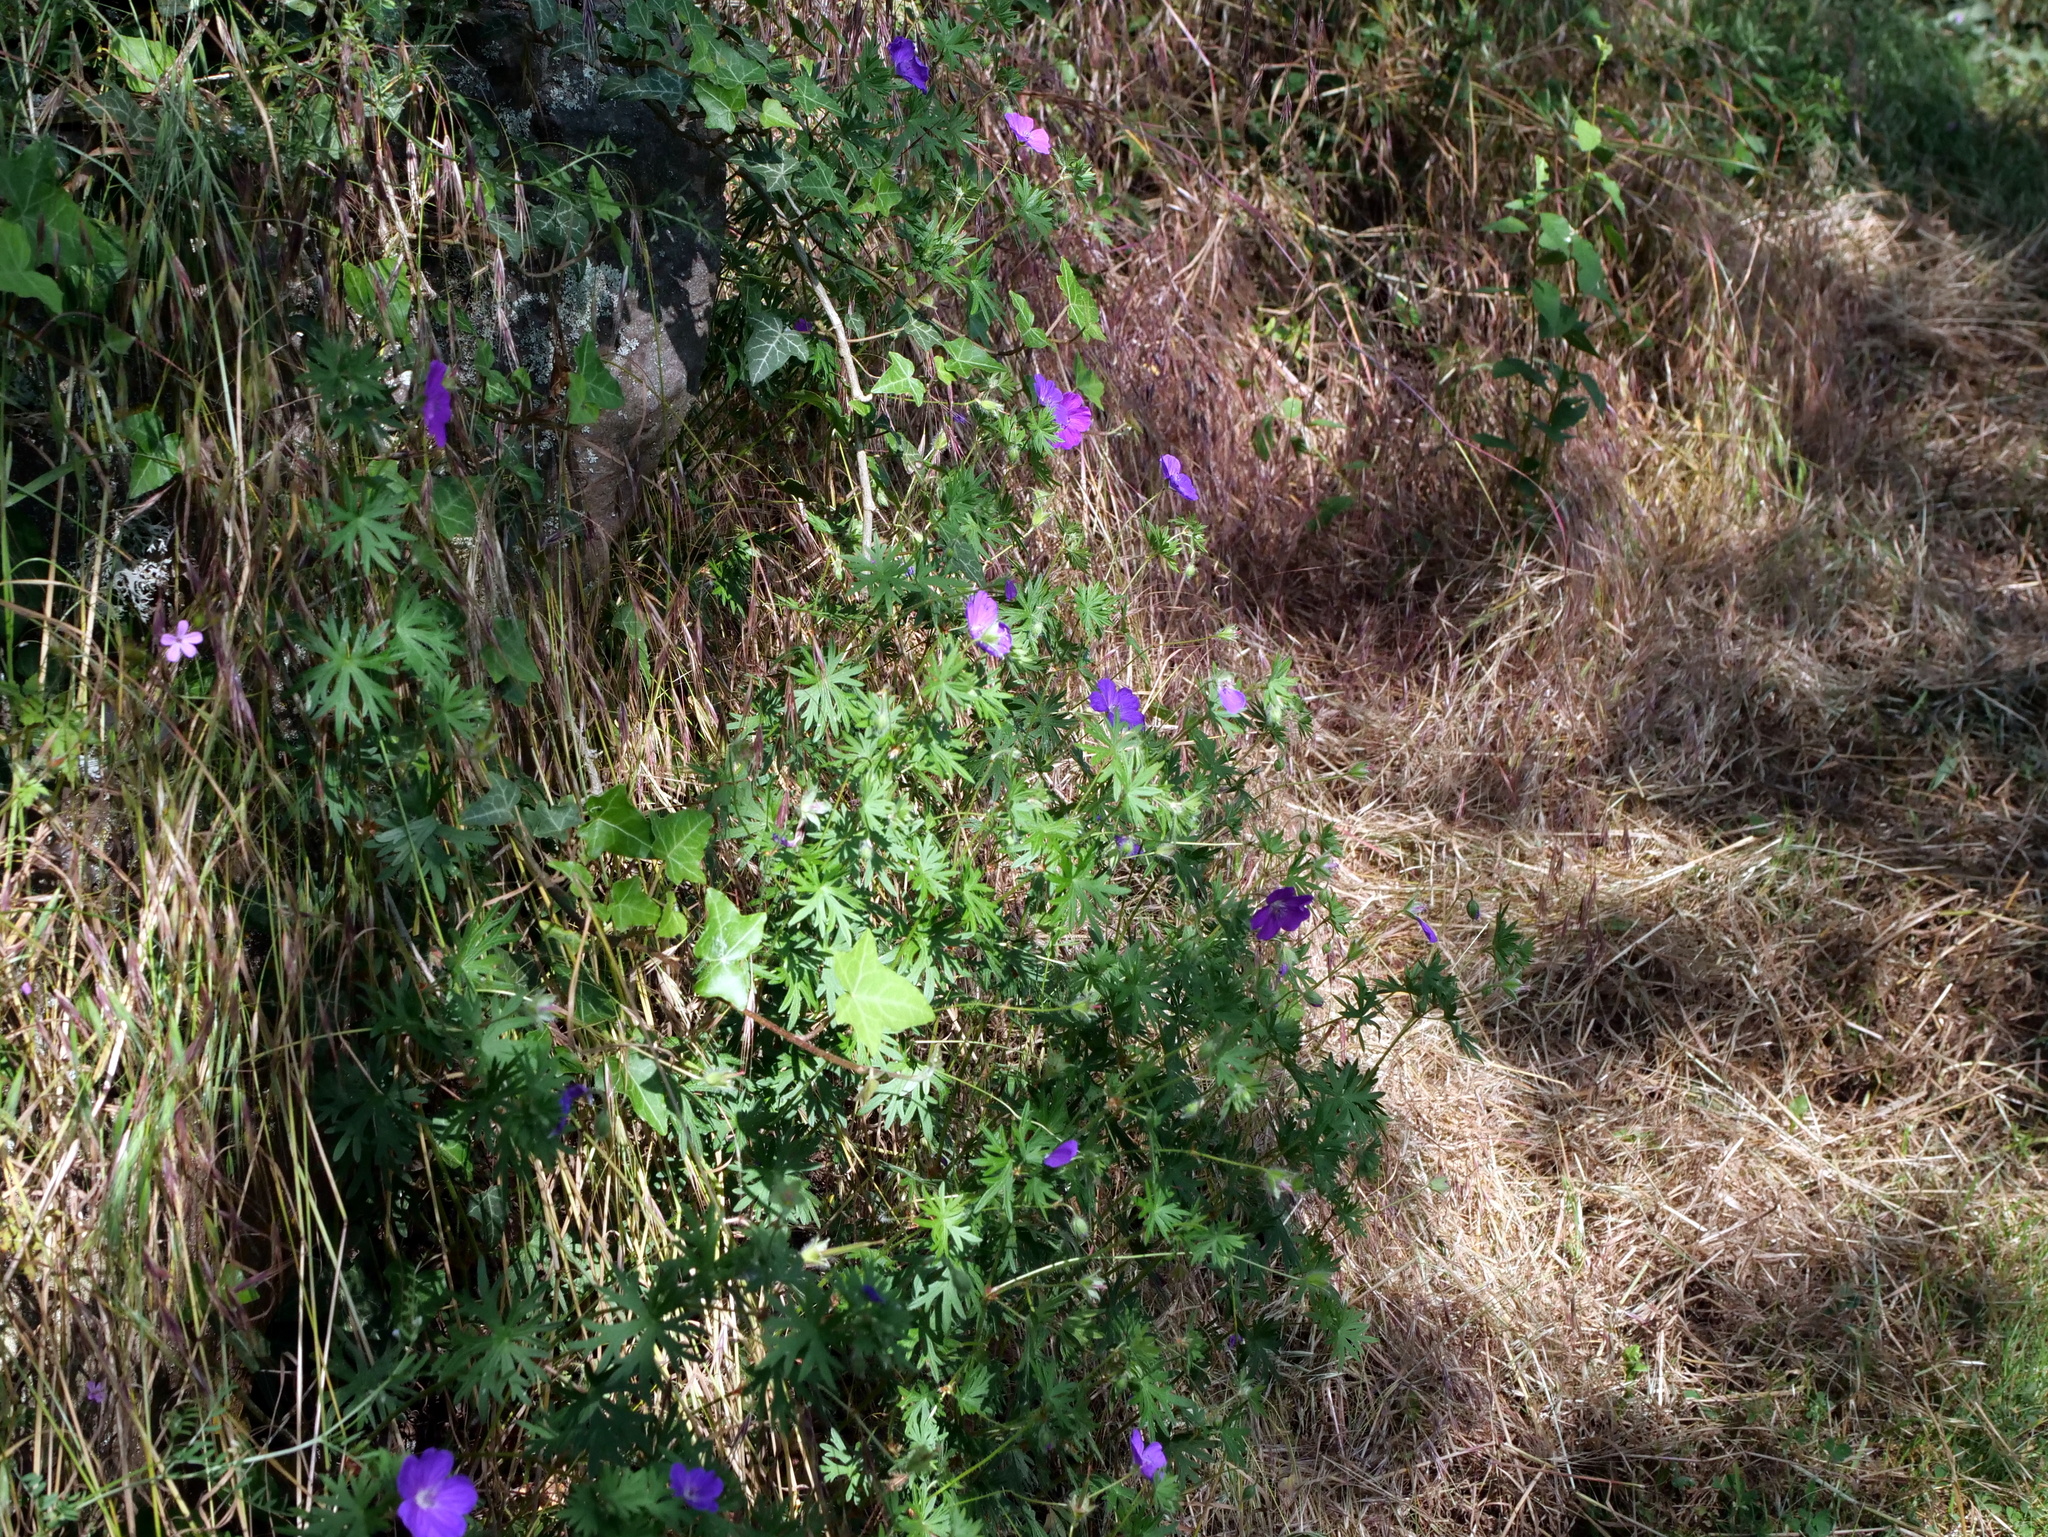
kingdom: Plantae
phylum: Tracheophyta
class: Magnoliopsida
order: Geraniales
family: Geraniaceae
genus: Geranium
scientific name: Geranium sanguineum
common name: Bloody crane's-bill
